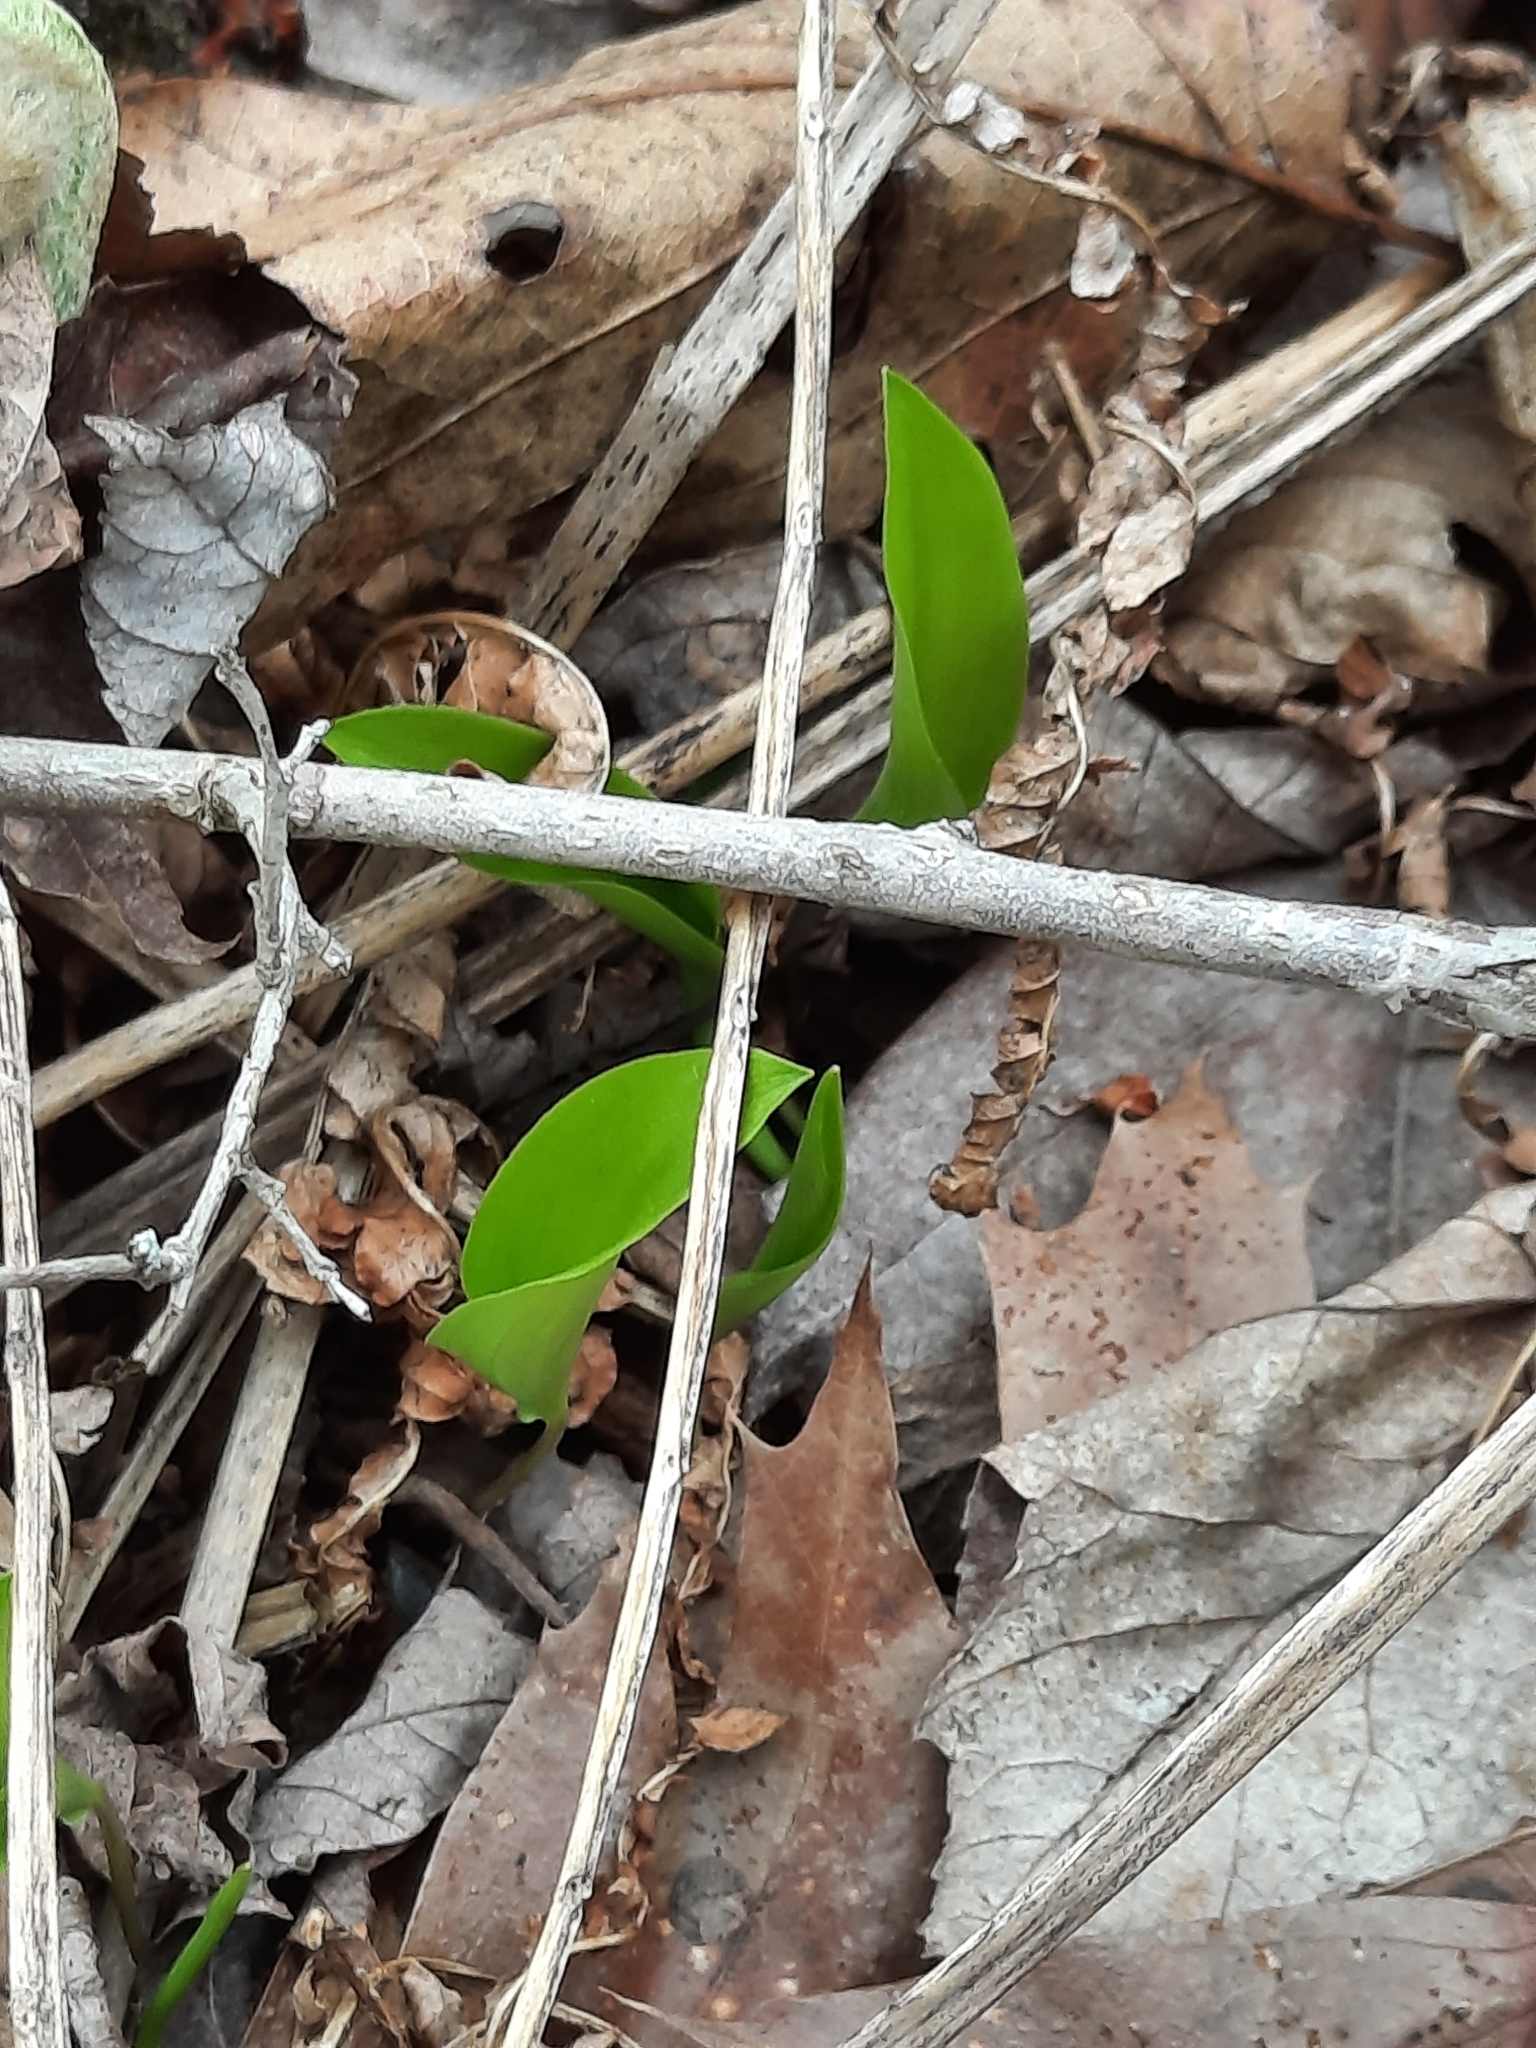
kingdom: Plantae
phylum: Tracheophyta
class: Liliopsida
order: Asparagales
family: Asparagaceae
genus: Maianthemum
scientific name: Maianthemum canadense
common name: False lily-of-the-valley
